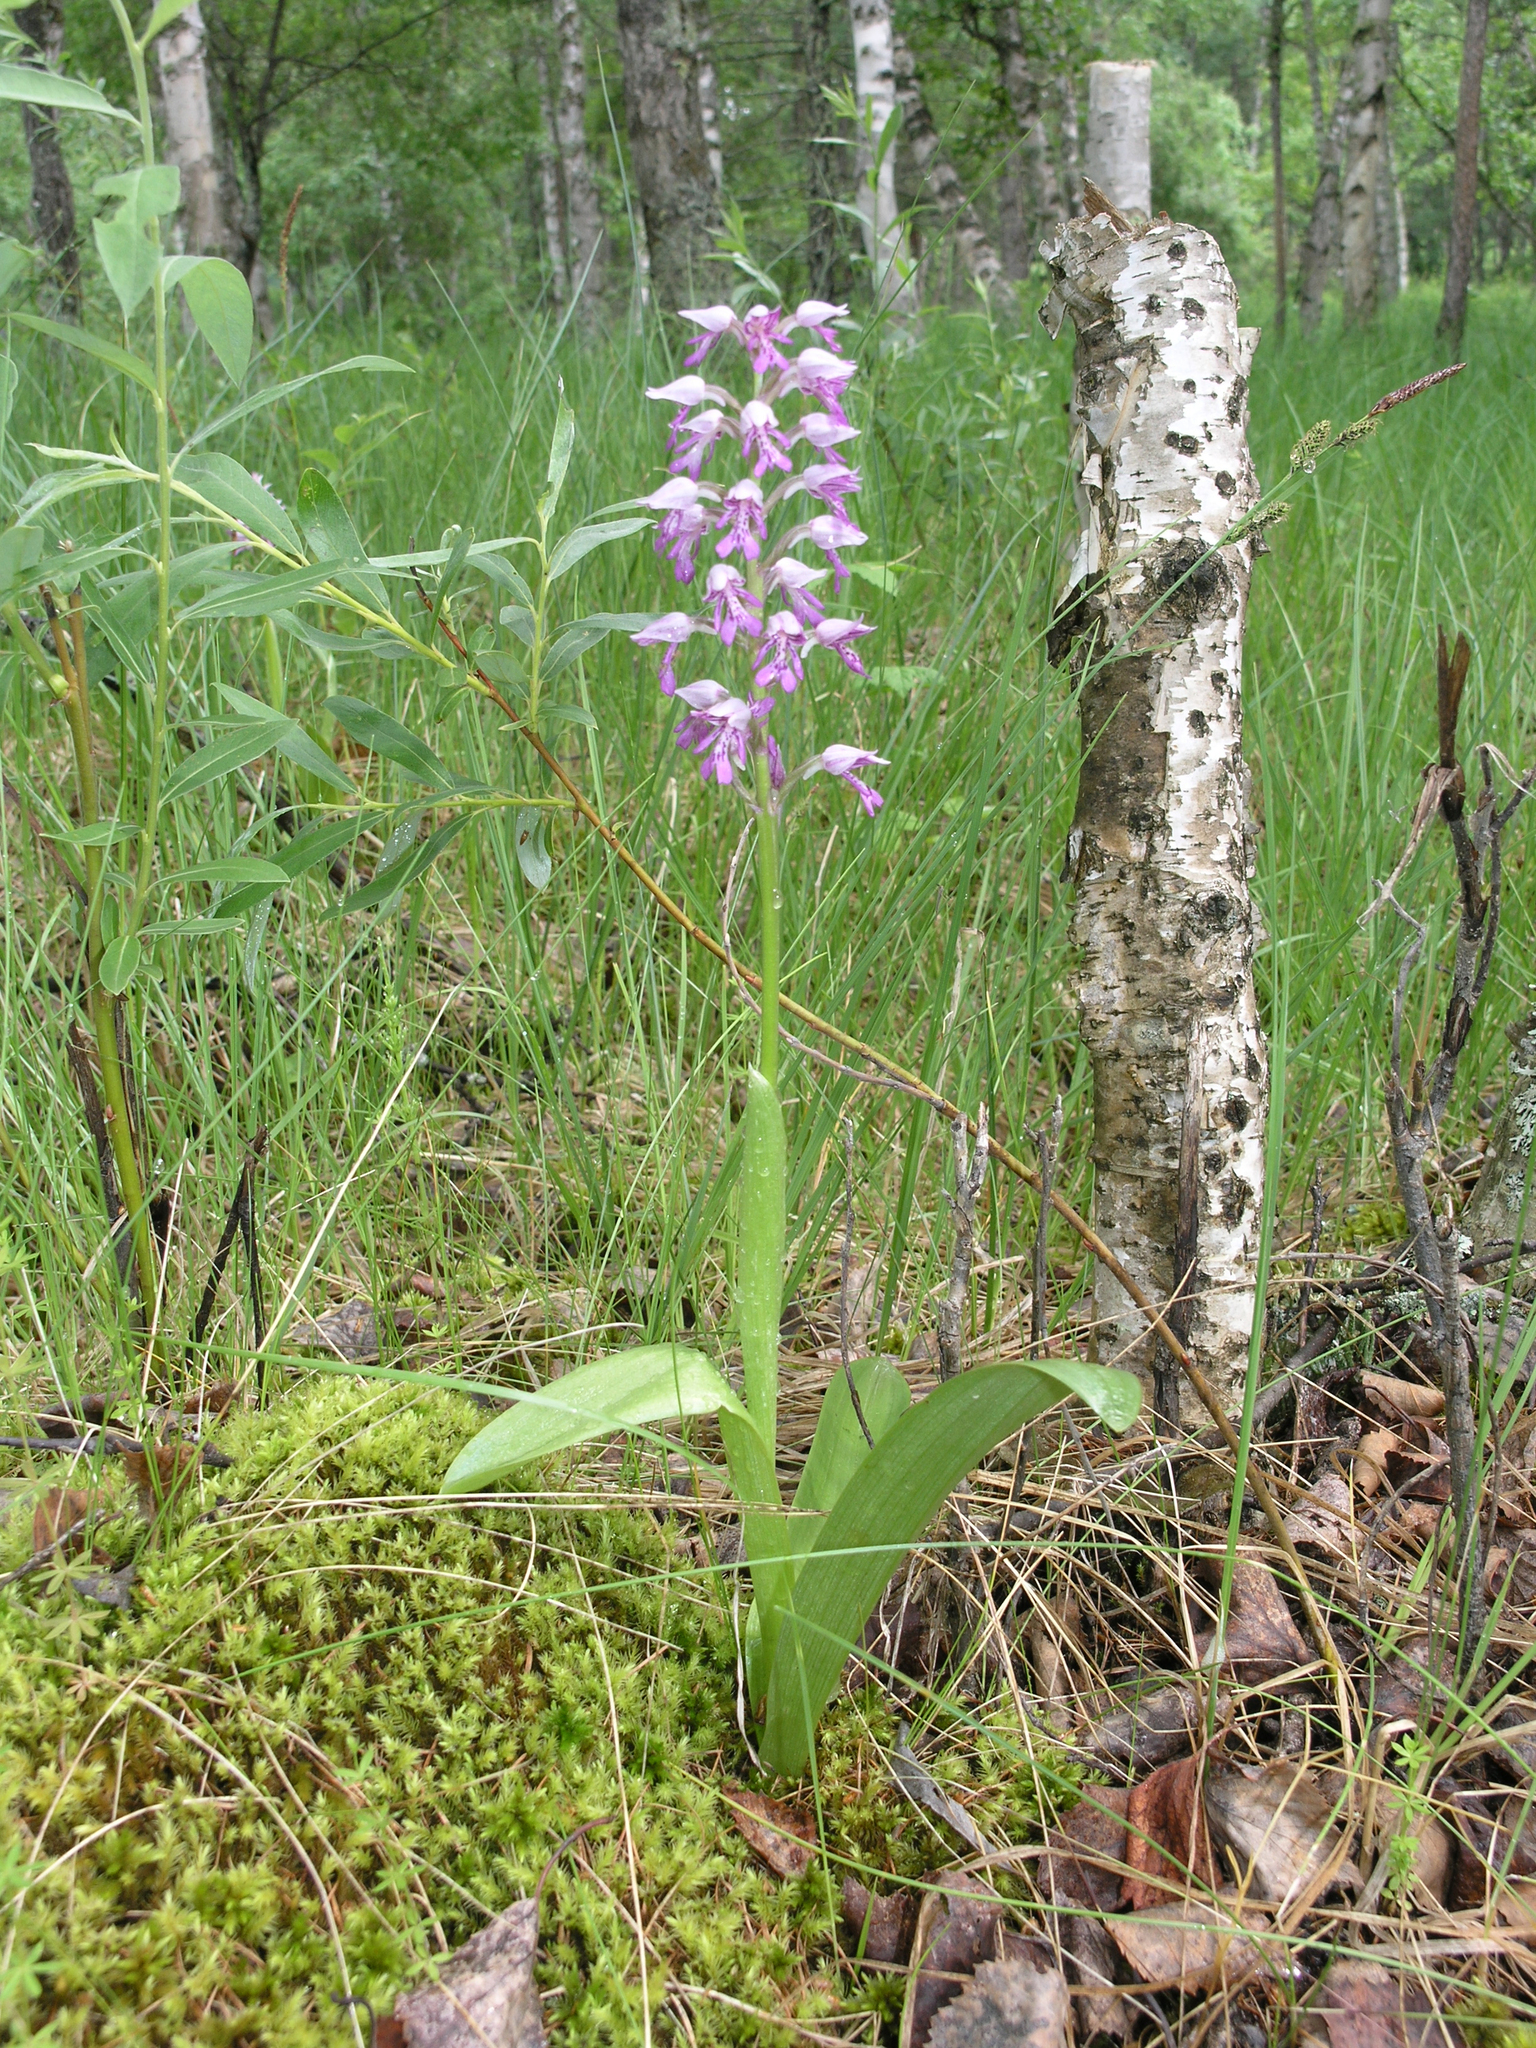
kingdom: Plantae
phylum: Tracheophyta
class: Magnoliopsida
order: Fagales
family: Betulaceae
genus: Betula
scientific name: Betula pubescens
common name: Downy birch
